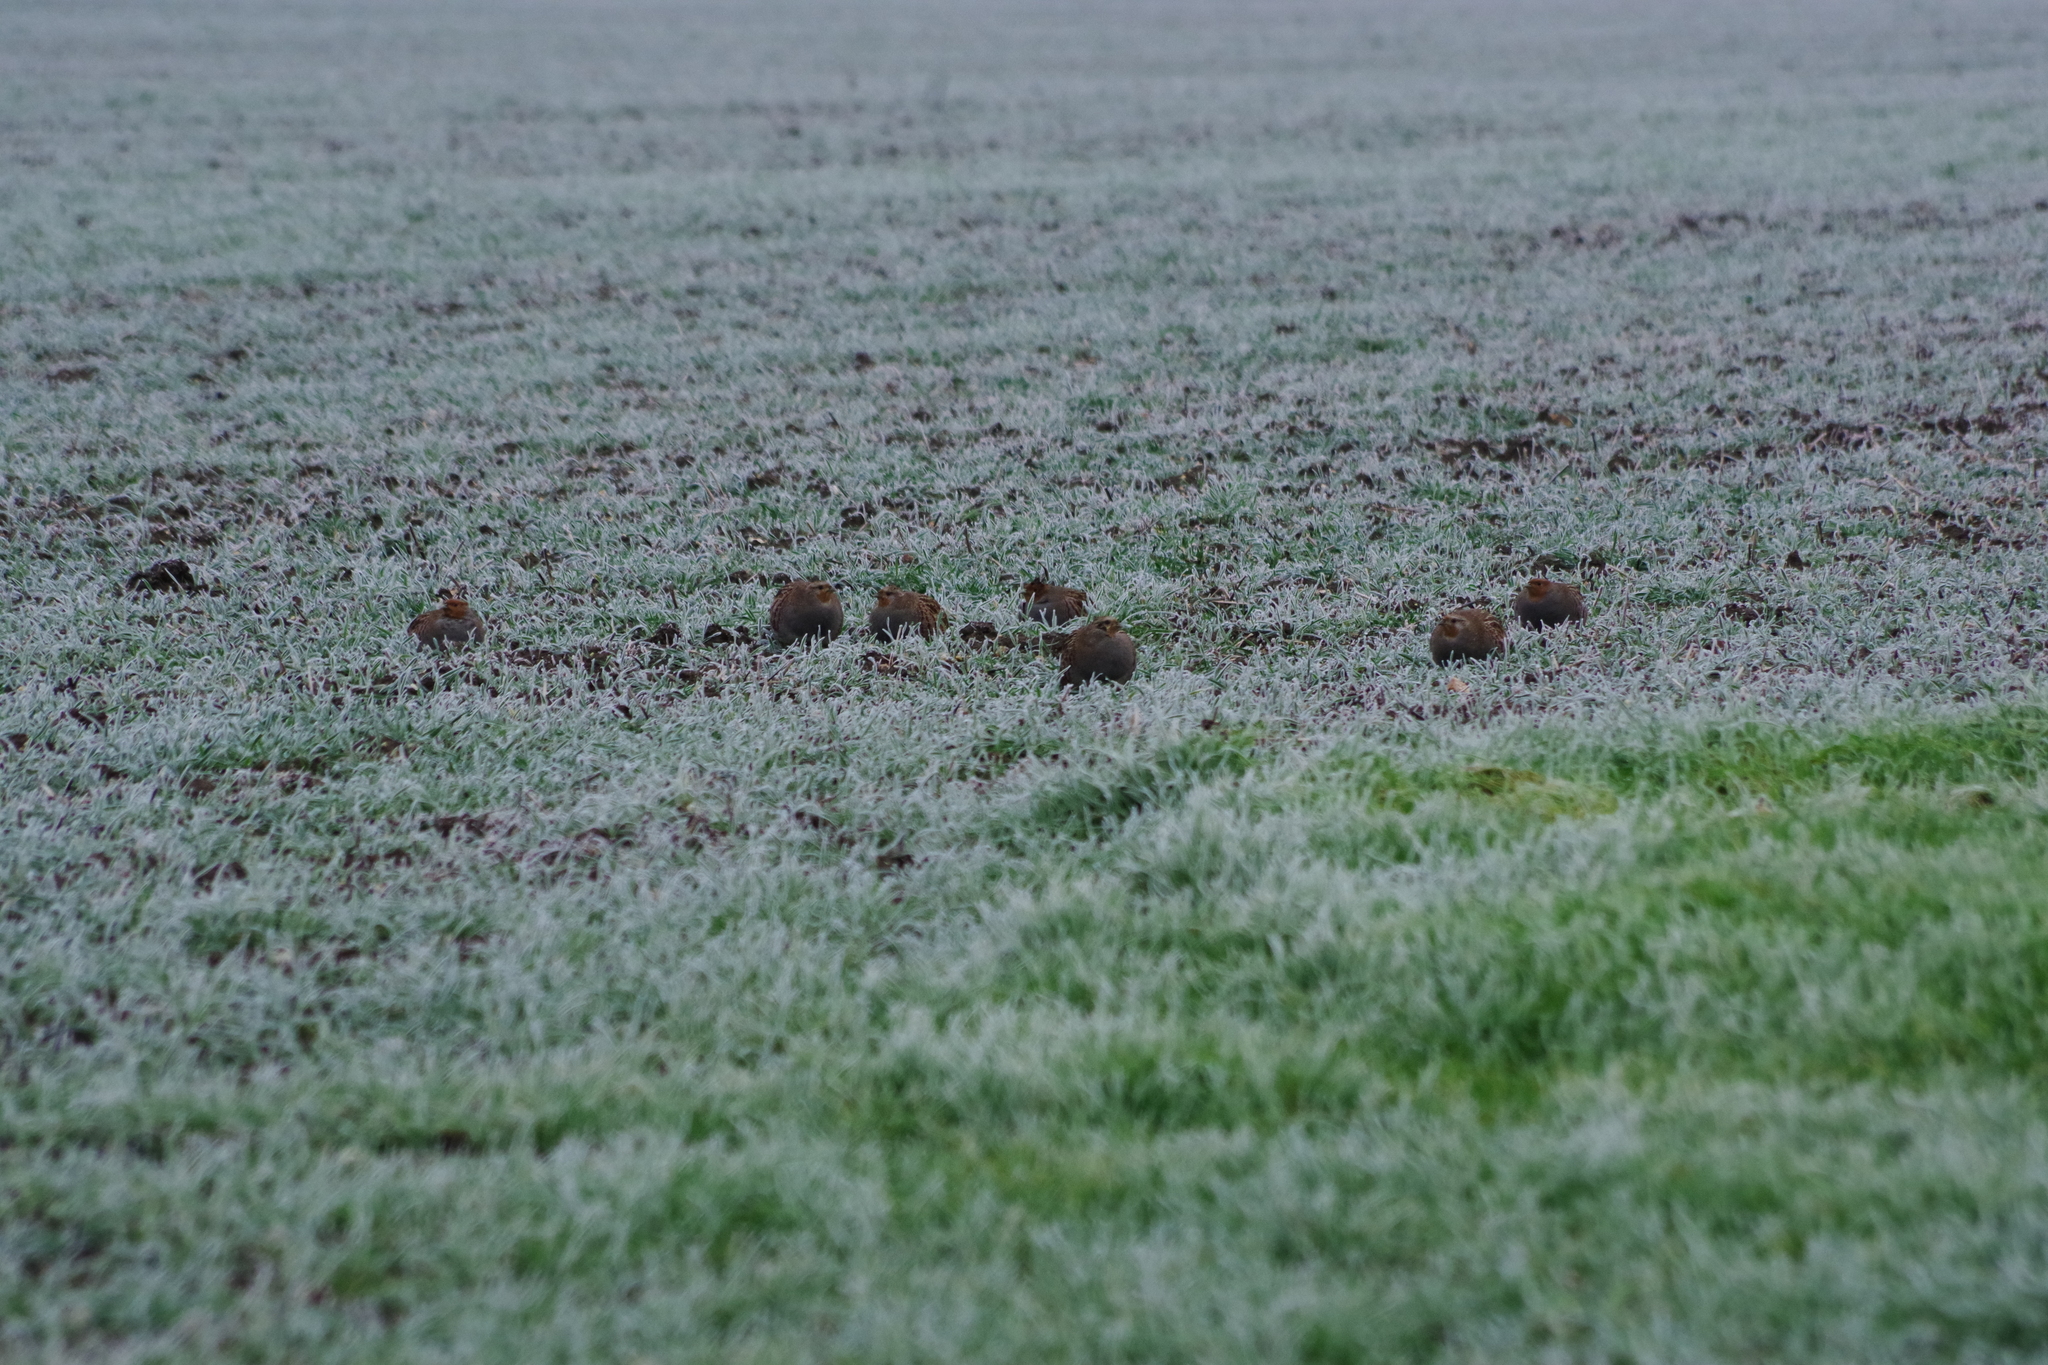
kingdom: Animalia
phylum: Chordata
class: Aves
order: Galliformes
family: Phasianidae
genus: Perdix
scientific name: Perdix perdix
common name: Grey partridge
